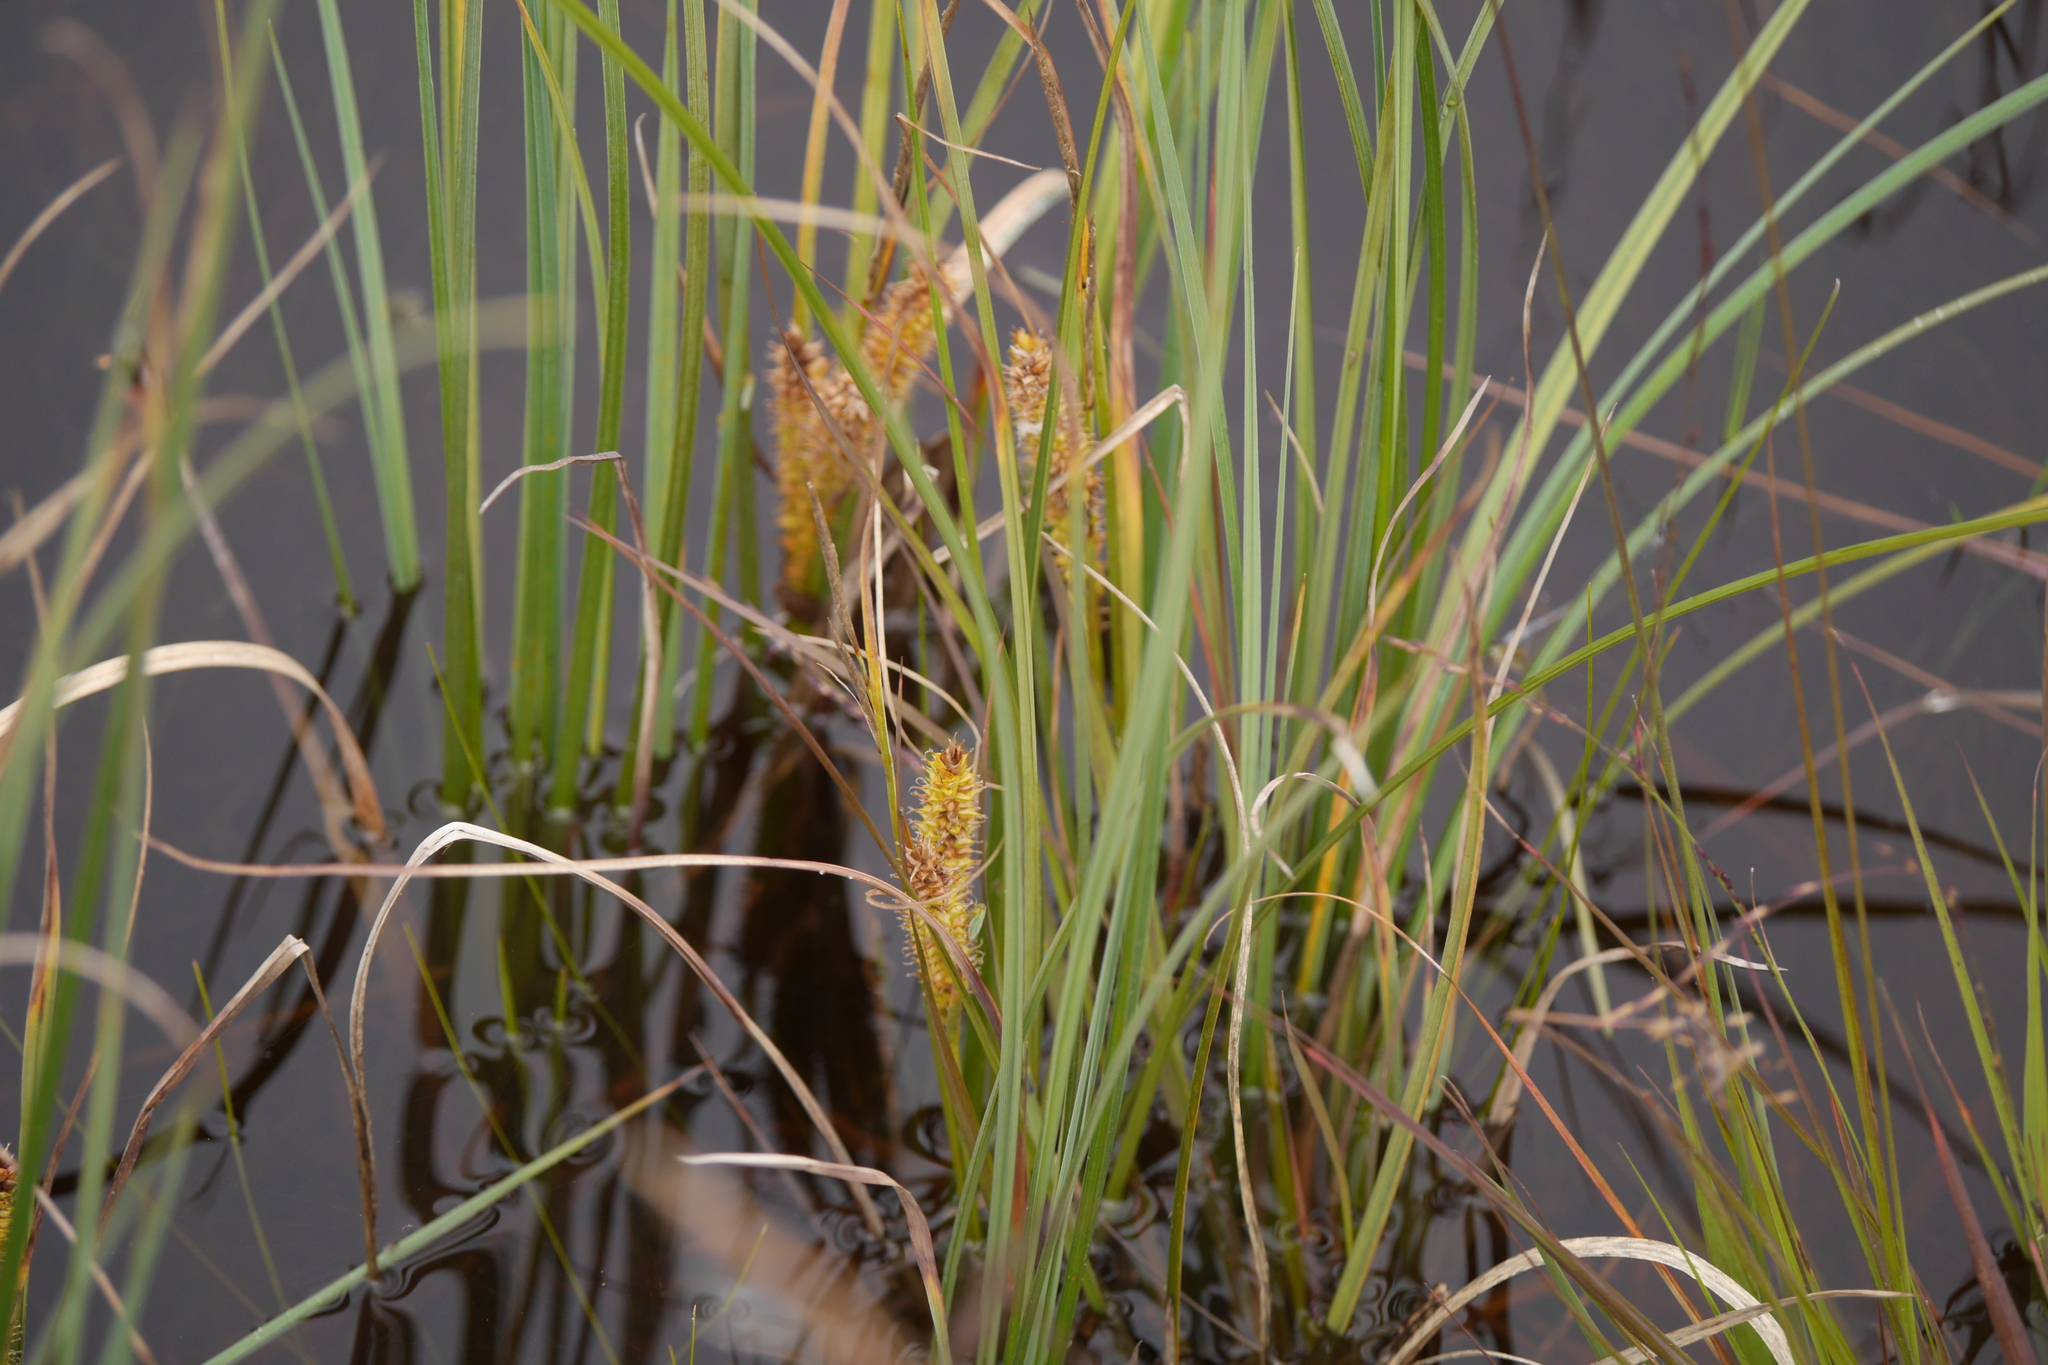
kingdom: Plantae
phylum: Tracheophyta
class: Liliopsida
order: Poales
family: Cyperaceae
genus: Carex
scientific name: Carex rostrata
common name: Bottle sedge
